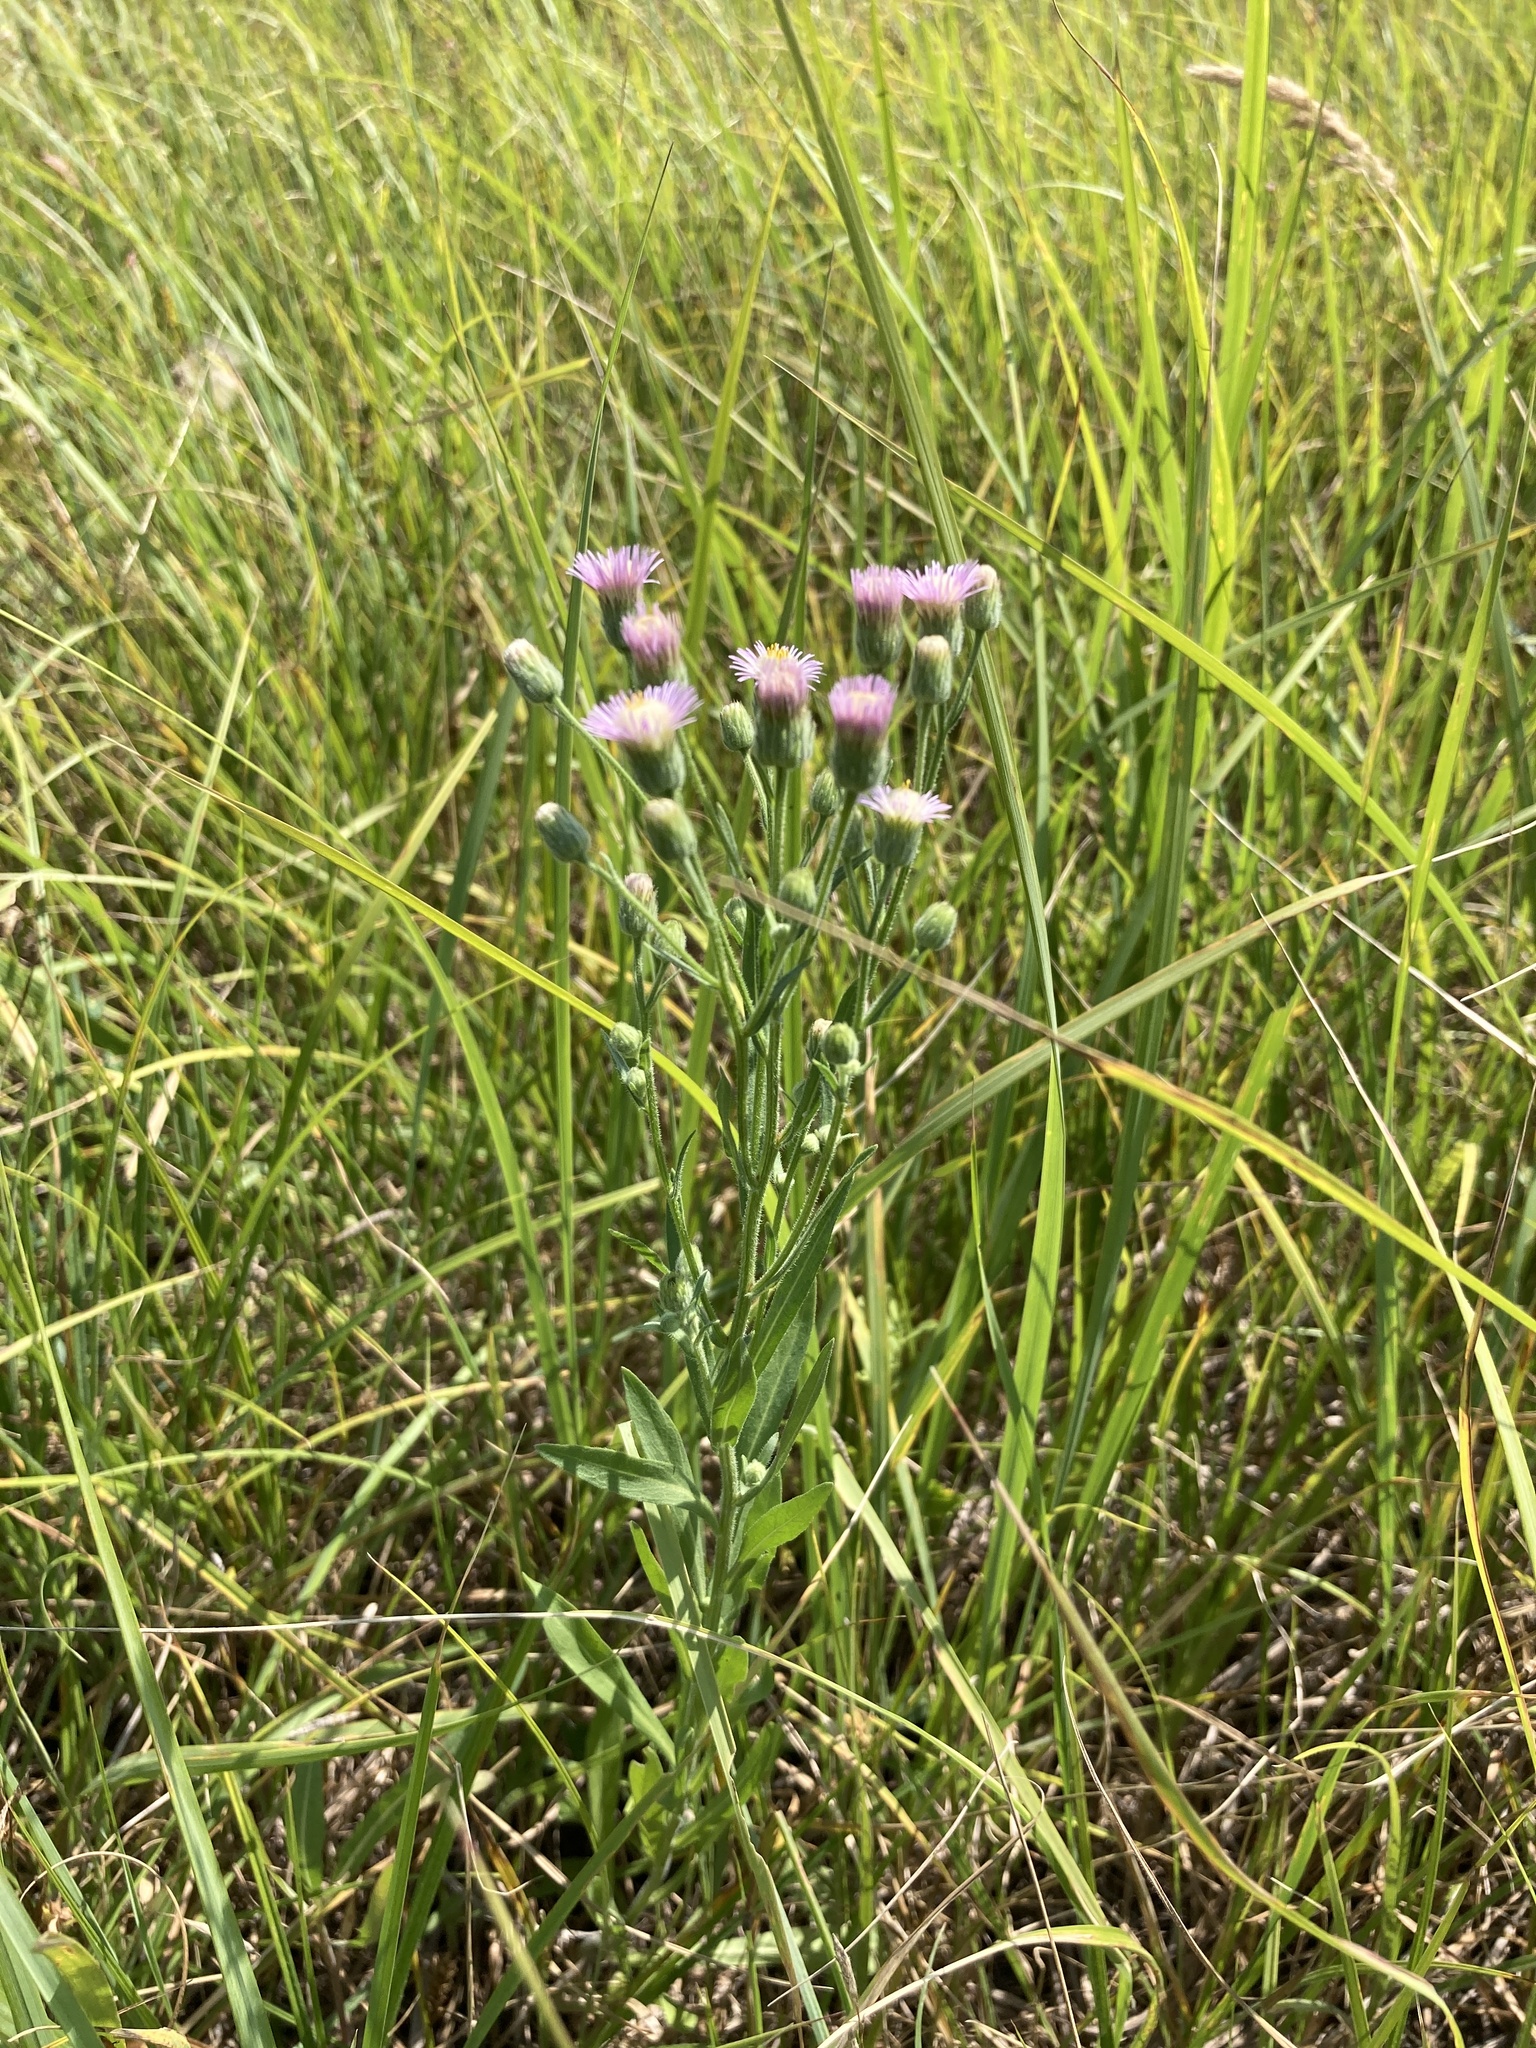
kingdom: Plantae
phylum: Tracheophyta
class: Magnoliopsida
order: Asterales
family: Asteraceae
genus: Erigeron
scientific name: Erigeron acris
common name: Blue fleabane
